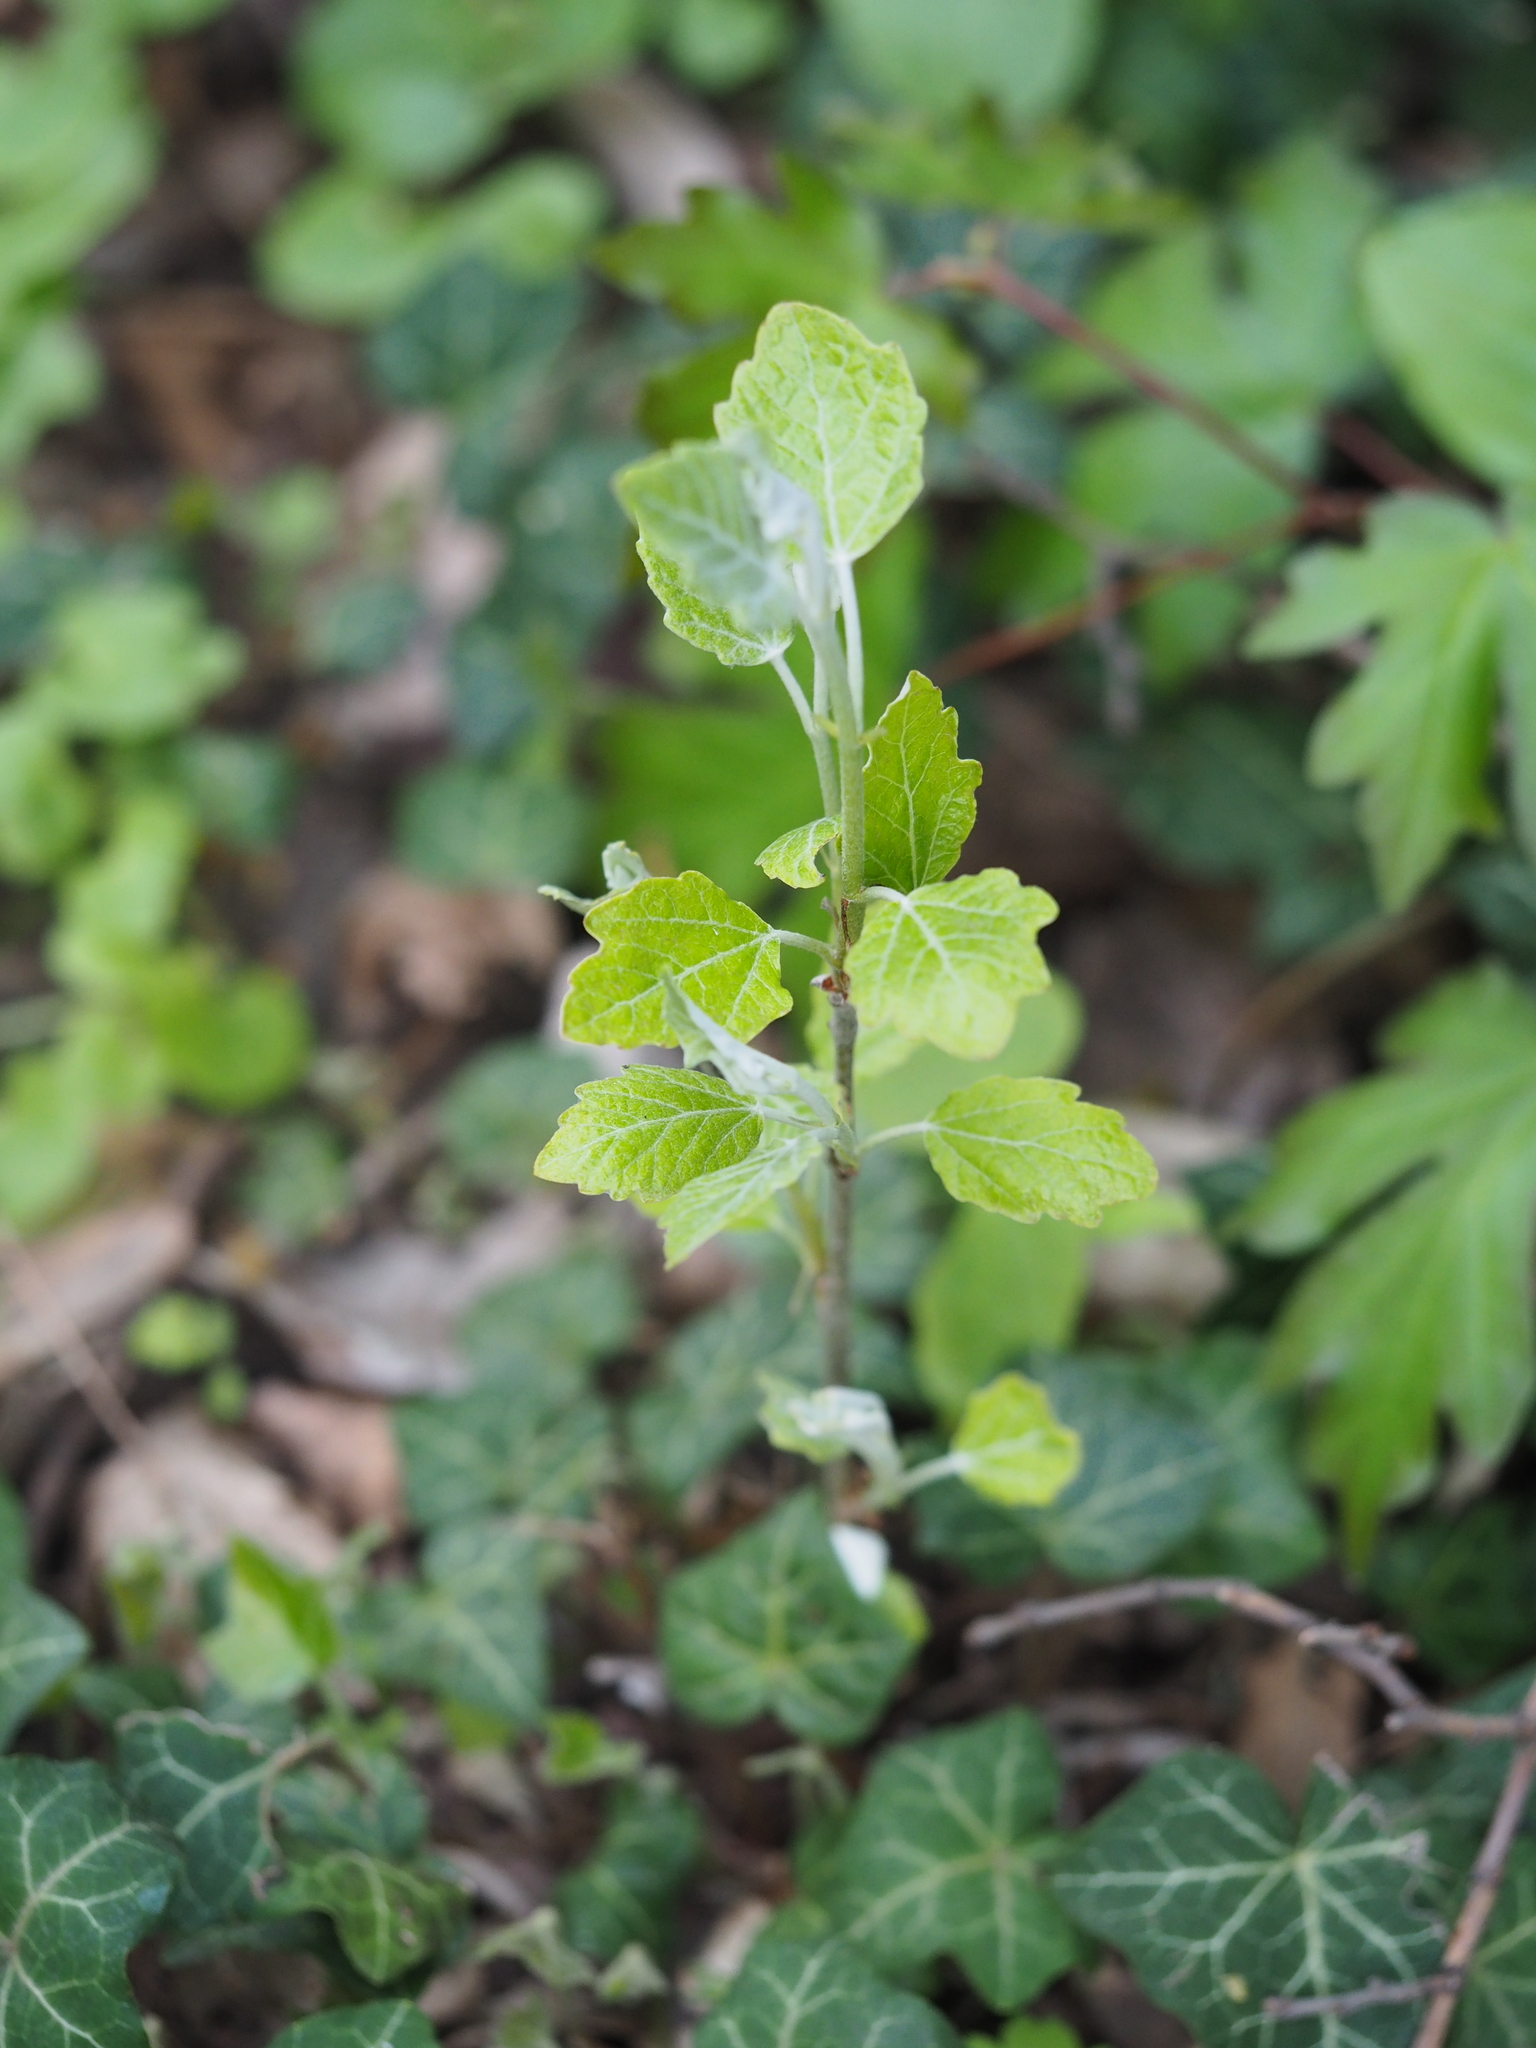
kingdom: Plantae
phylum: Tracheophyta
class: Magnoliopsida
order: Malpighiales
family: Salicaceae
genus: Populus
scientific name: Populus alba
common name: White poplar
